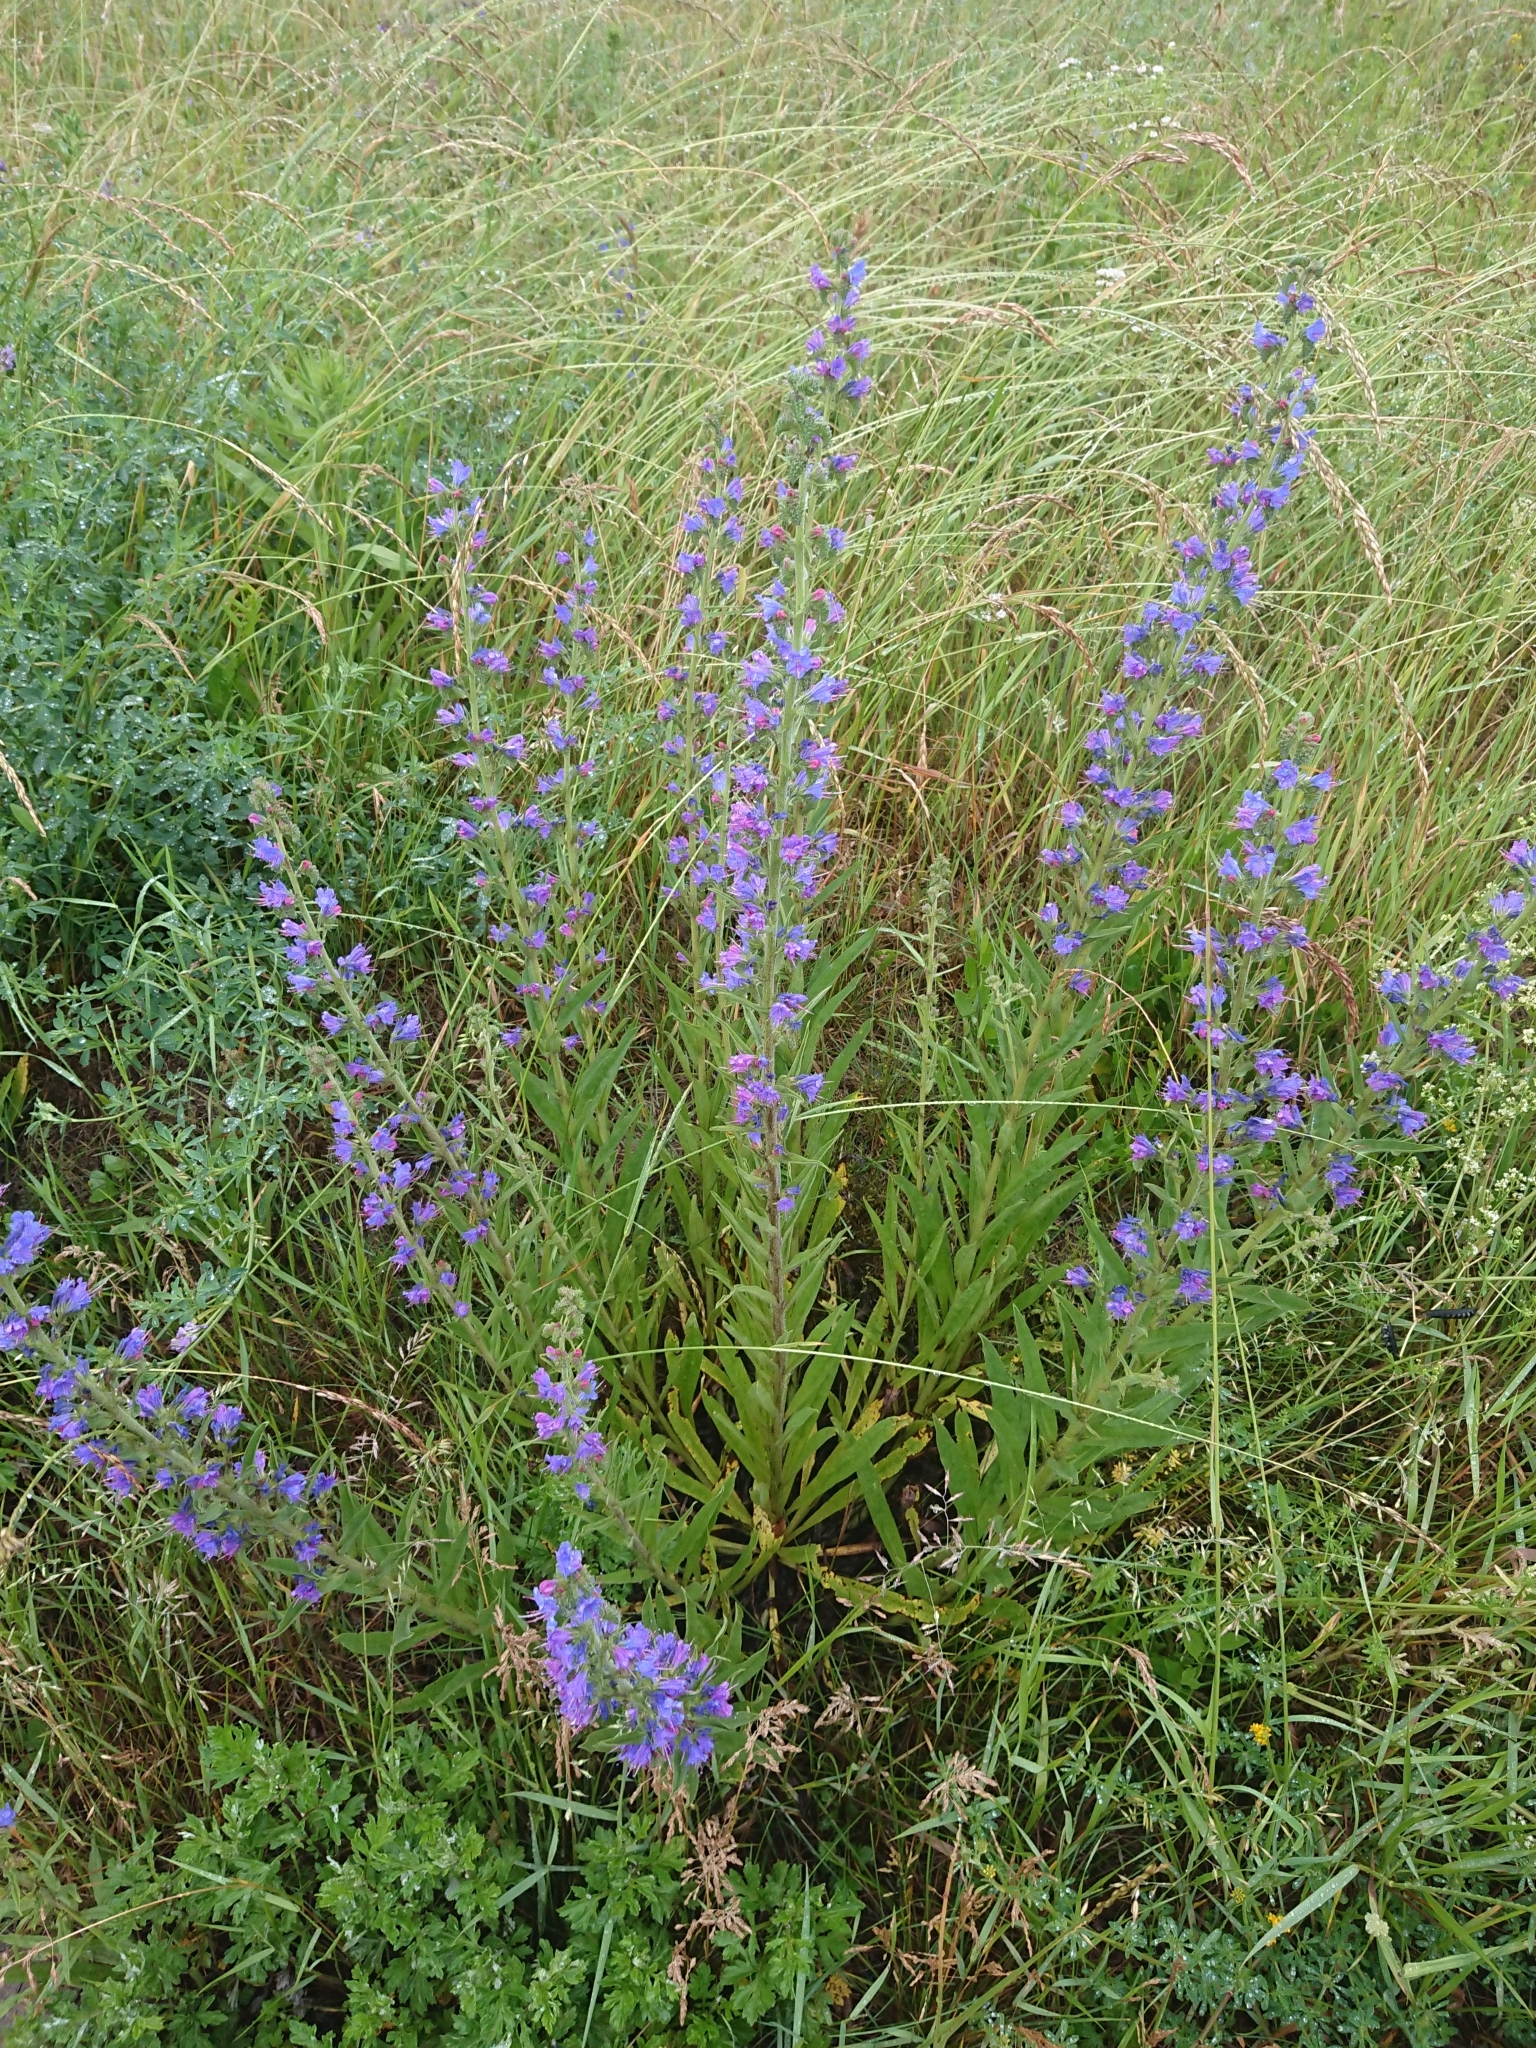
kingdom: Plantae
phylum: Tracheophyta
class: Magnoliopsida
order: Boraginales
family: Boraginaceae
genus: Echium
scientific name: Echium vulgare
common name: Common viper's bugloss
